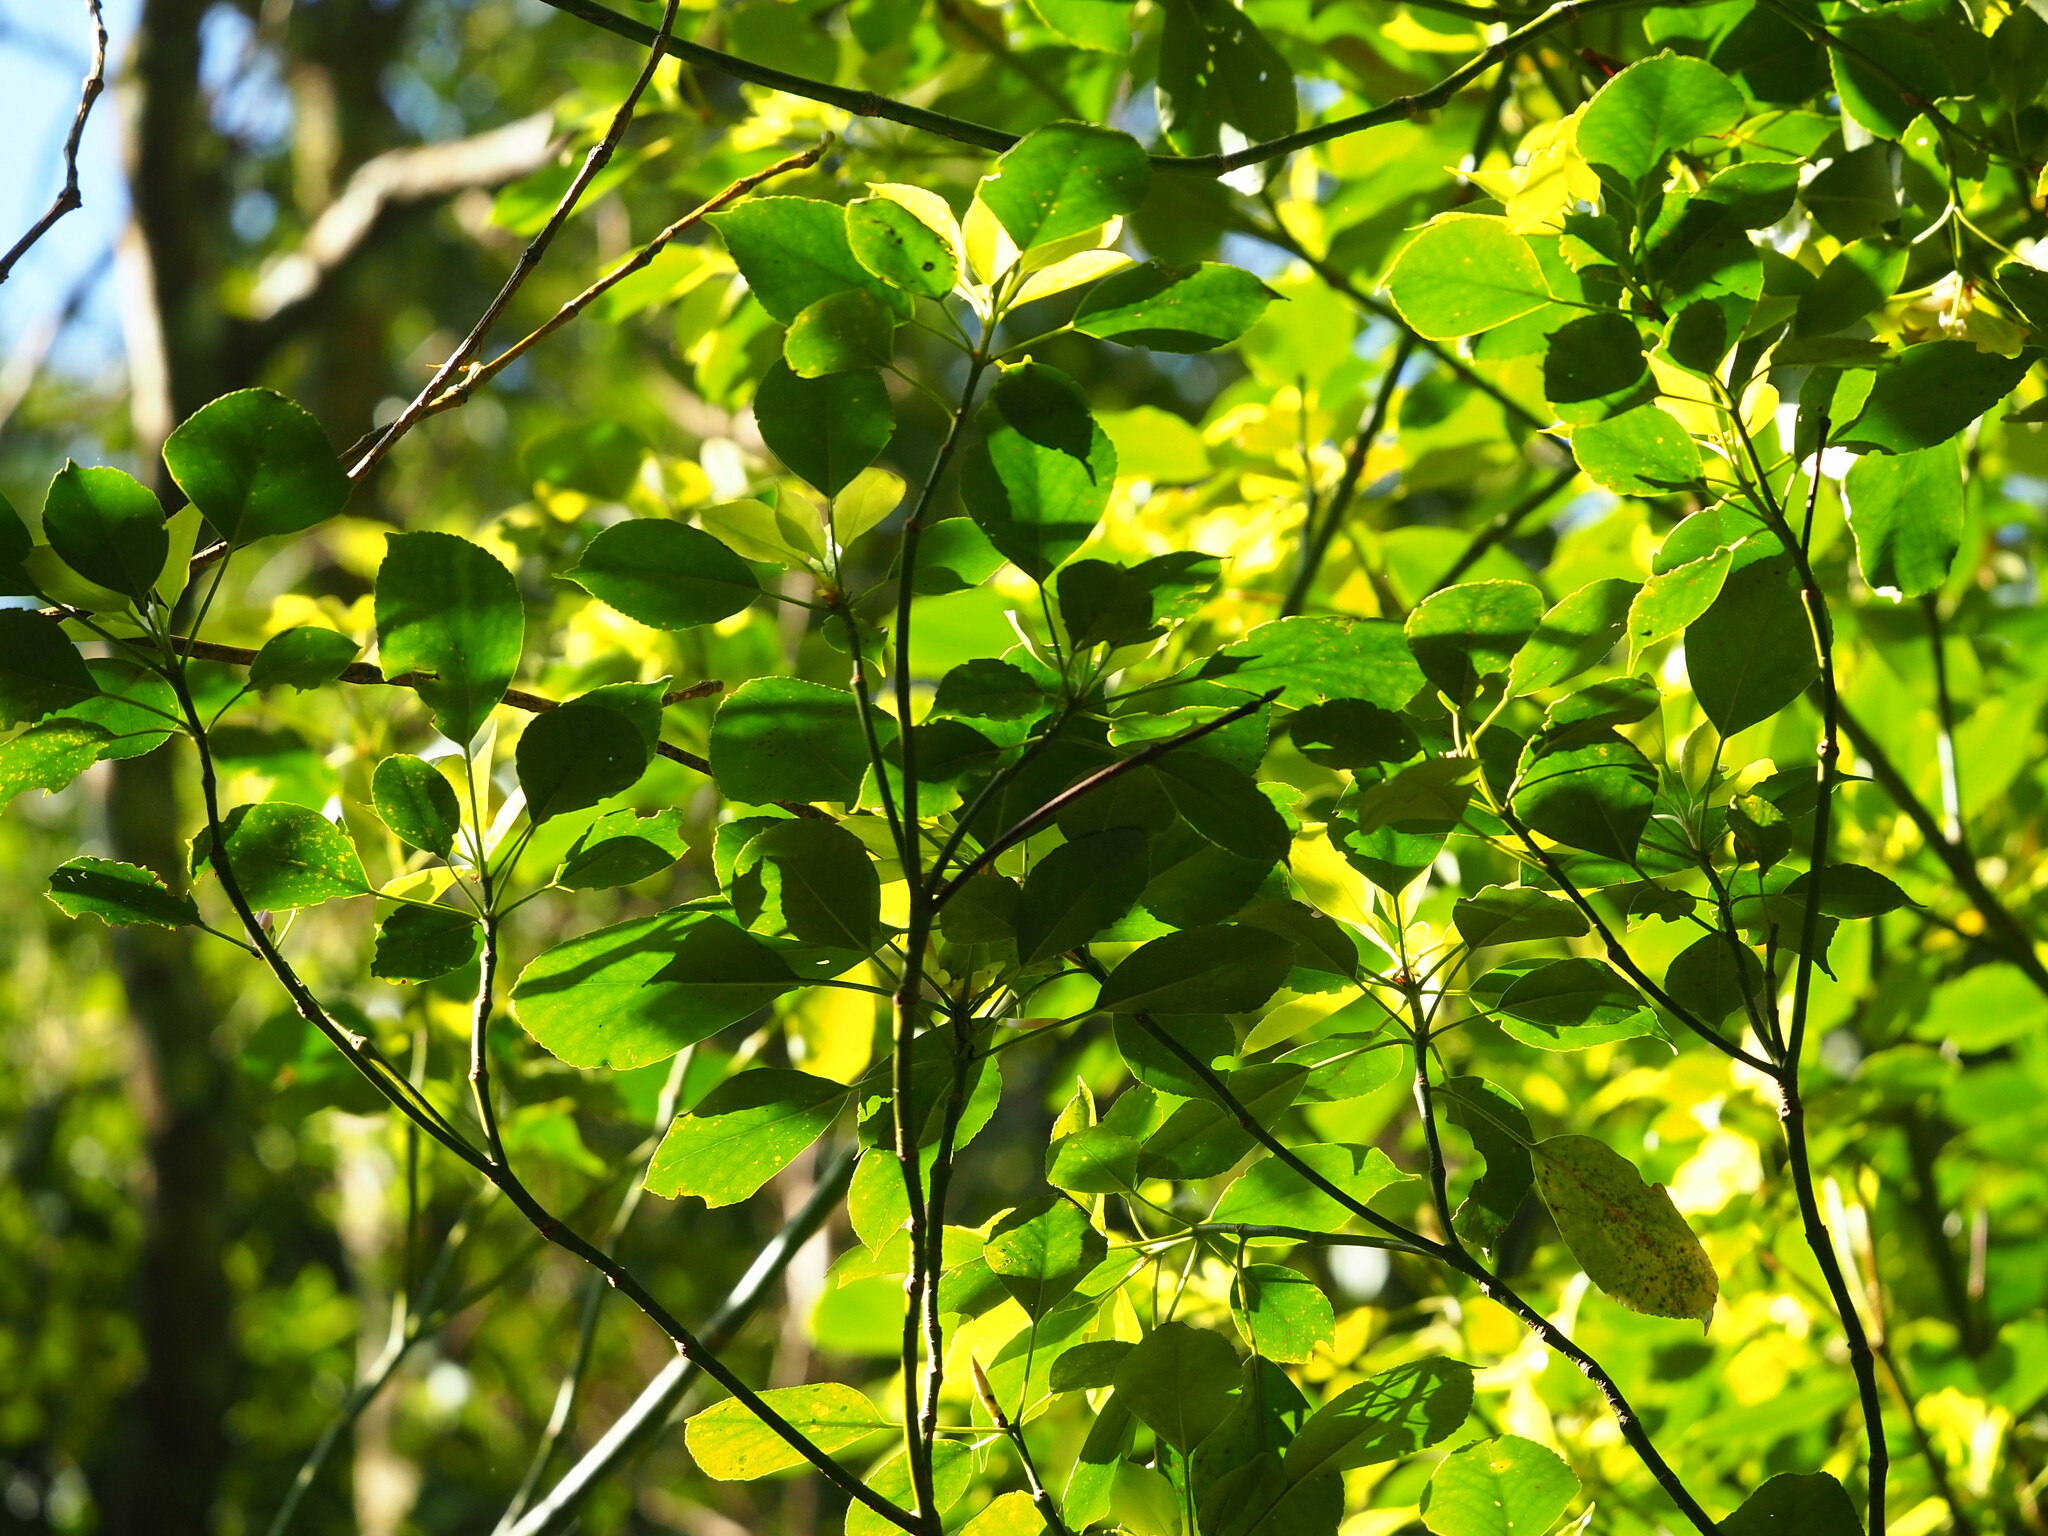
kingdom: Plantae
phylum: Tracheophyta
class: Magnoliopsida
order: Trochodendrales
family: Trochodendraceae
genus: Trochodendron
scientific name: Trochodendron aralioides
